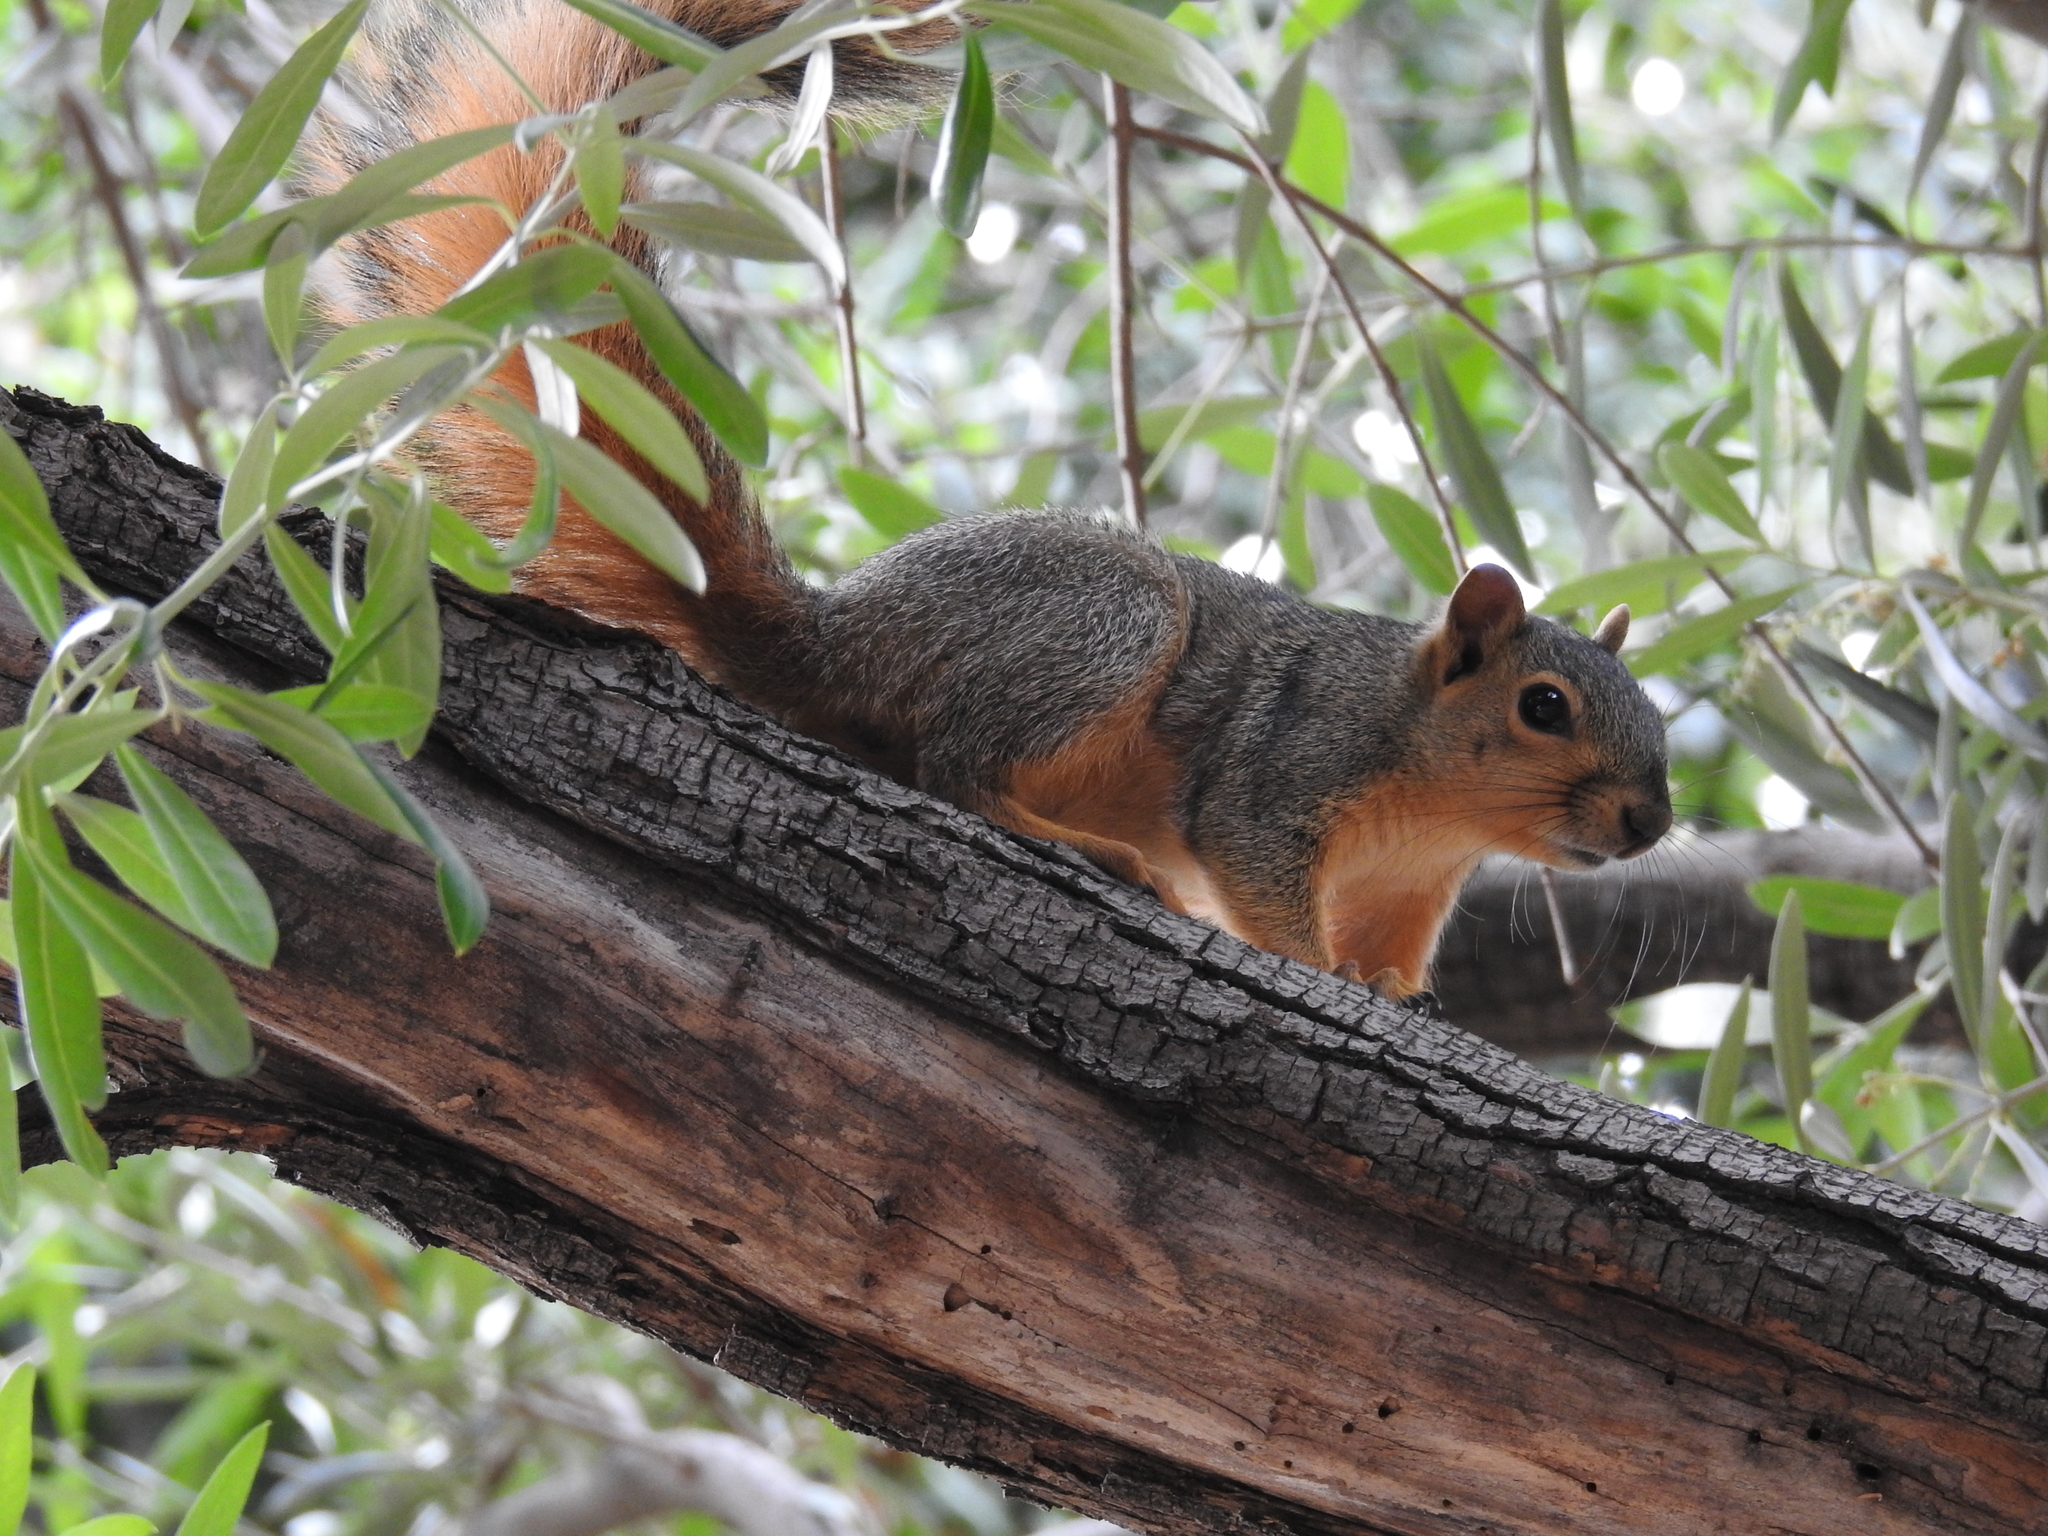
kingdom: Animalia
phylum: Chordata
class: Mammalia
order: Rodentia
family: Sciuridae
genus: Sciurus
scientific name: Sciurus niger
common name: Fox squirrel
